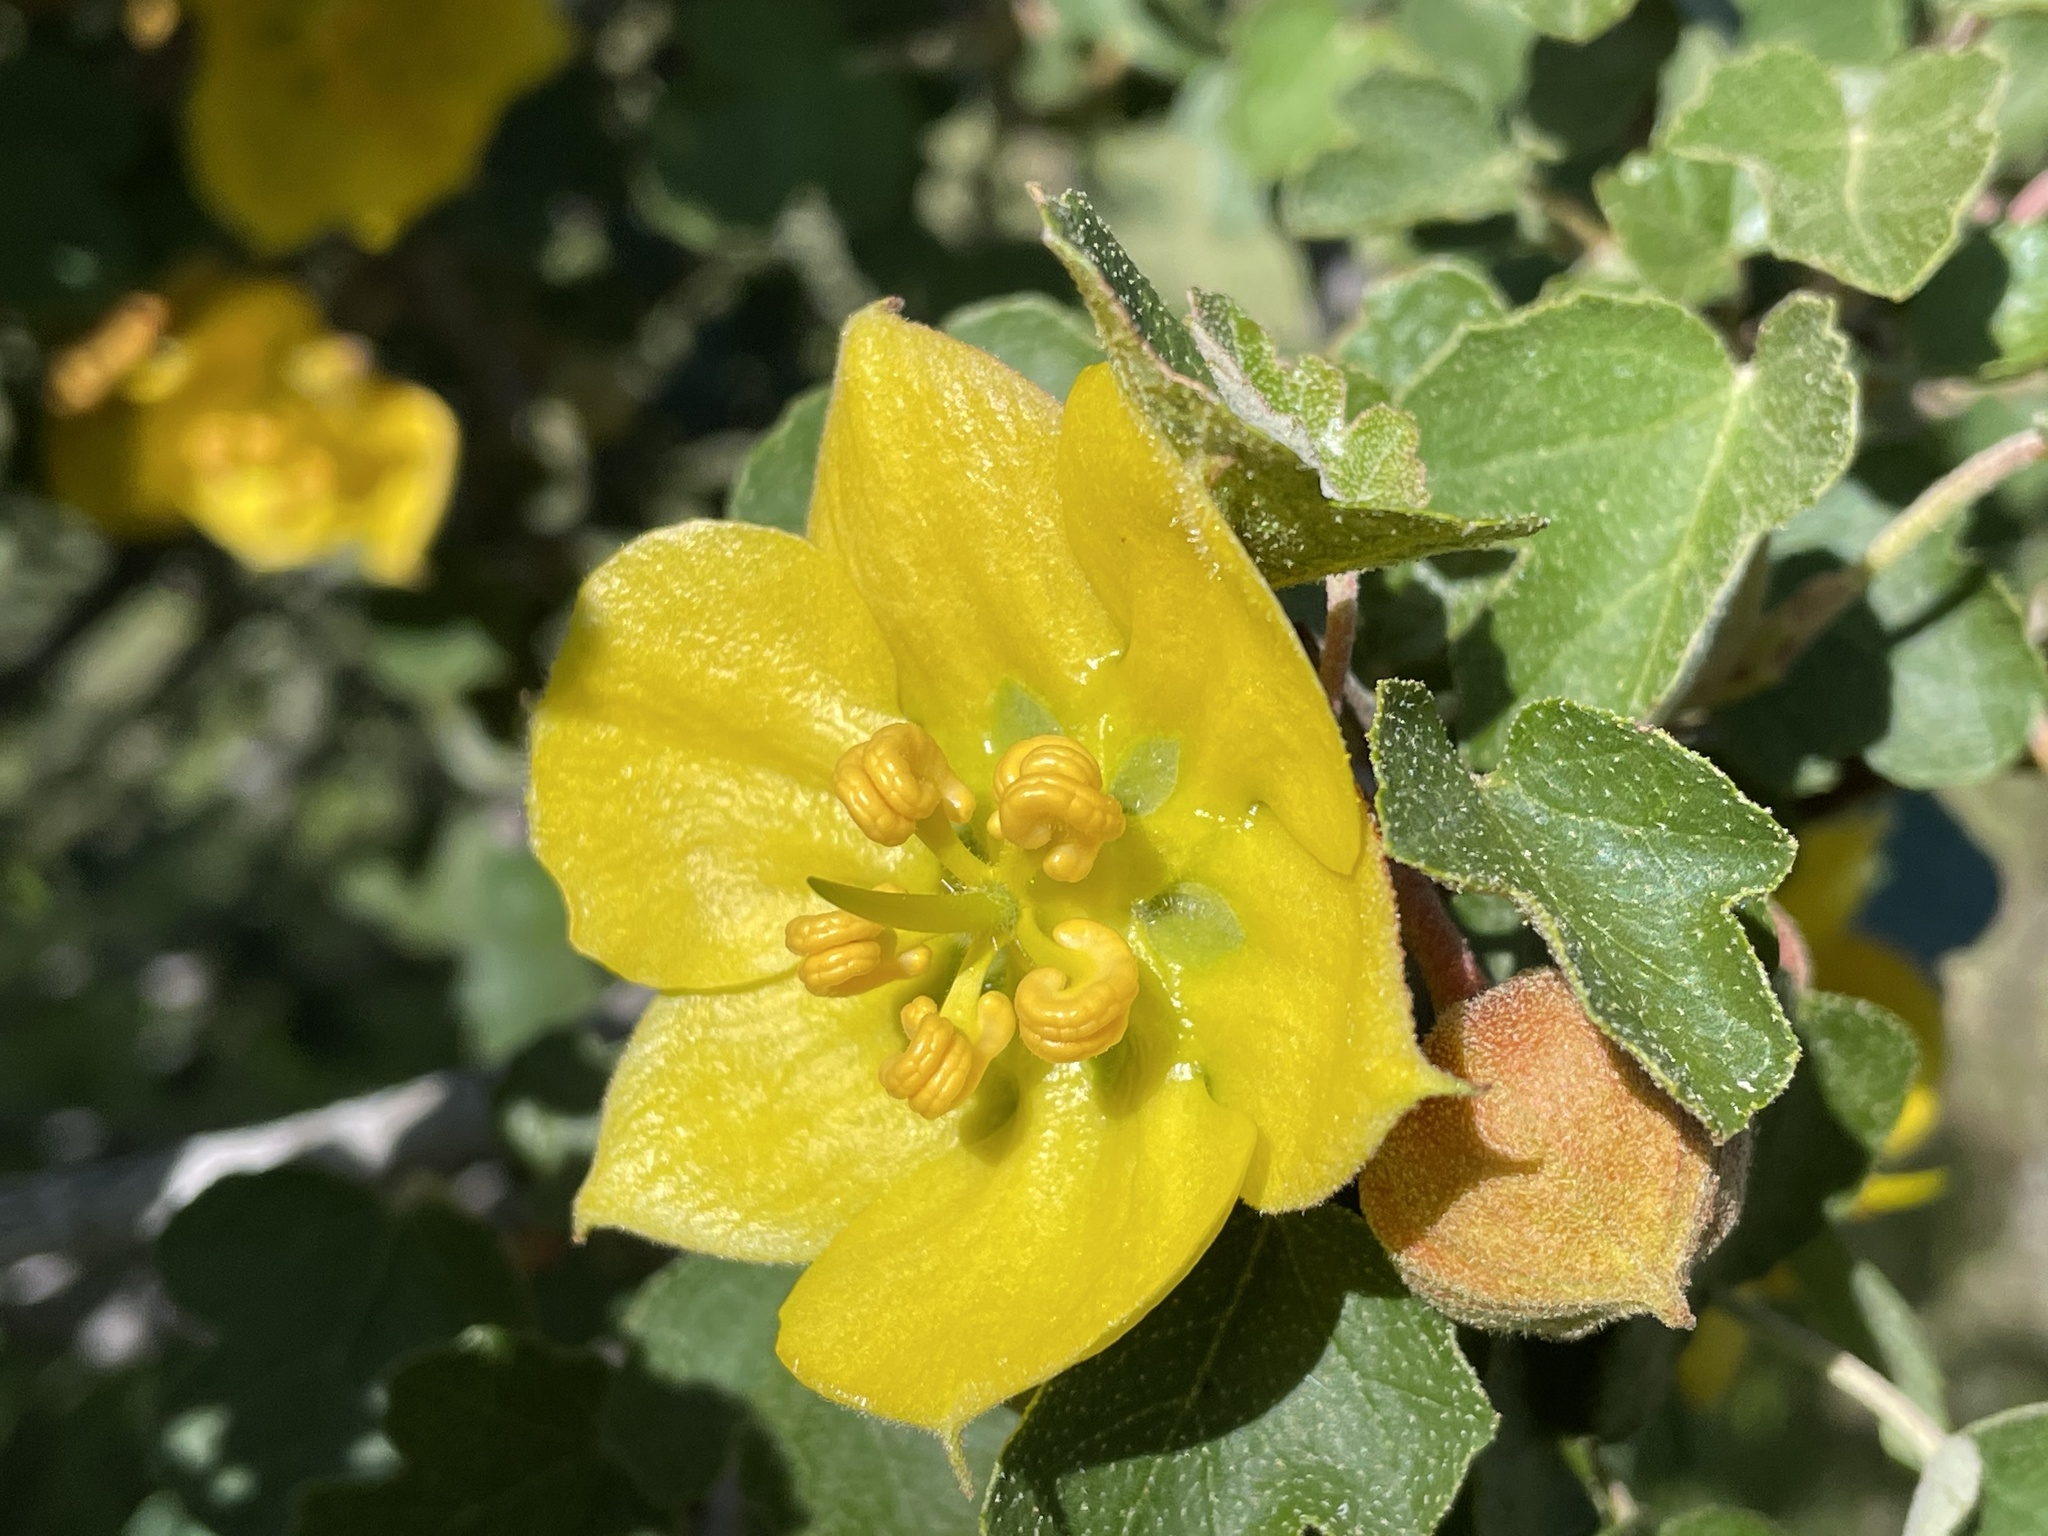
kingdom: Plantae
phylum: Tracheophyta
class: Magnoliopsida
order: Malvales
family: Malvaceae
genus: Fremontodendron
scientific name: Fremontodendron californicum
